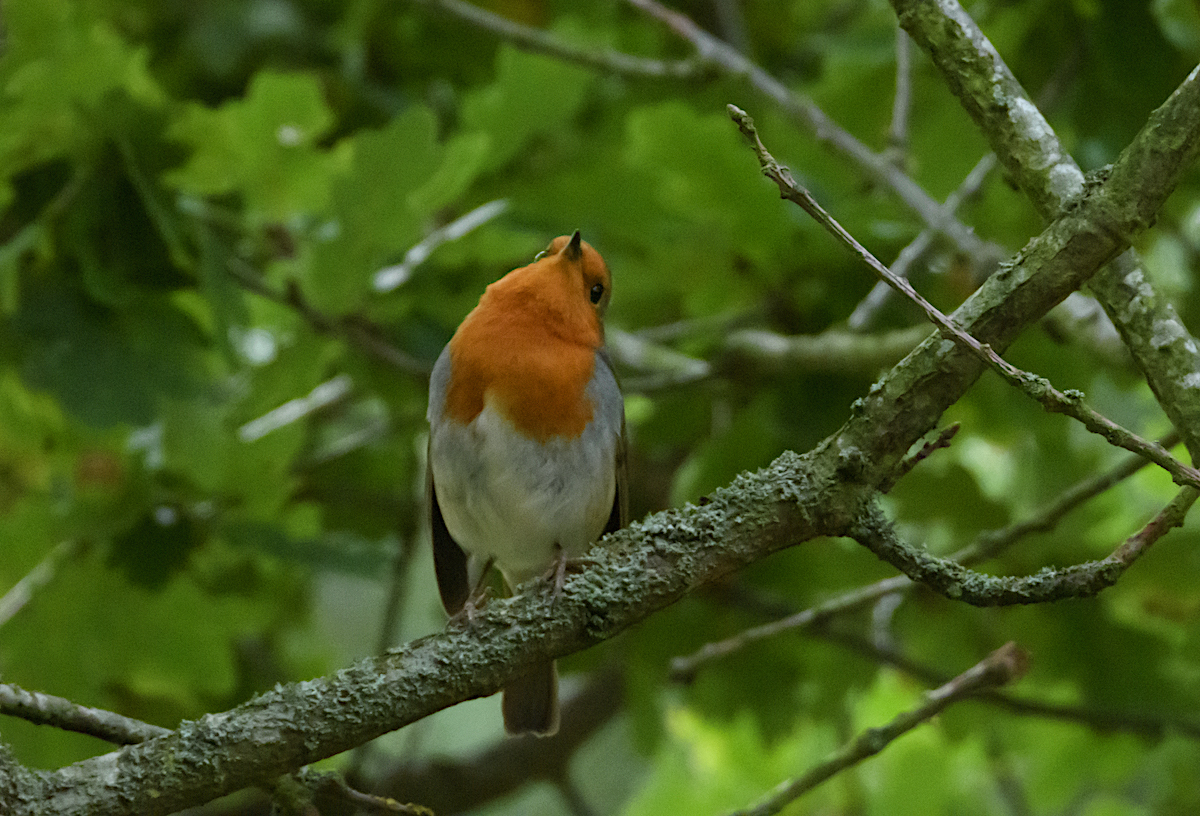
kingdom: Animalia
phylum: Chordata
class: Aves
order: Passeriformes
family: Muscicapidae
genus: Erithacus
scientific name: Erithacus rubecula
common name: European robin
